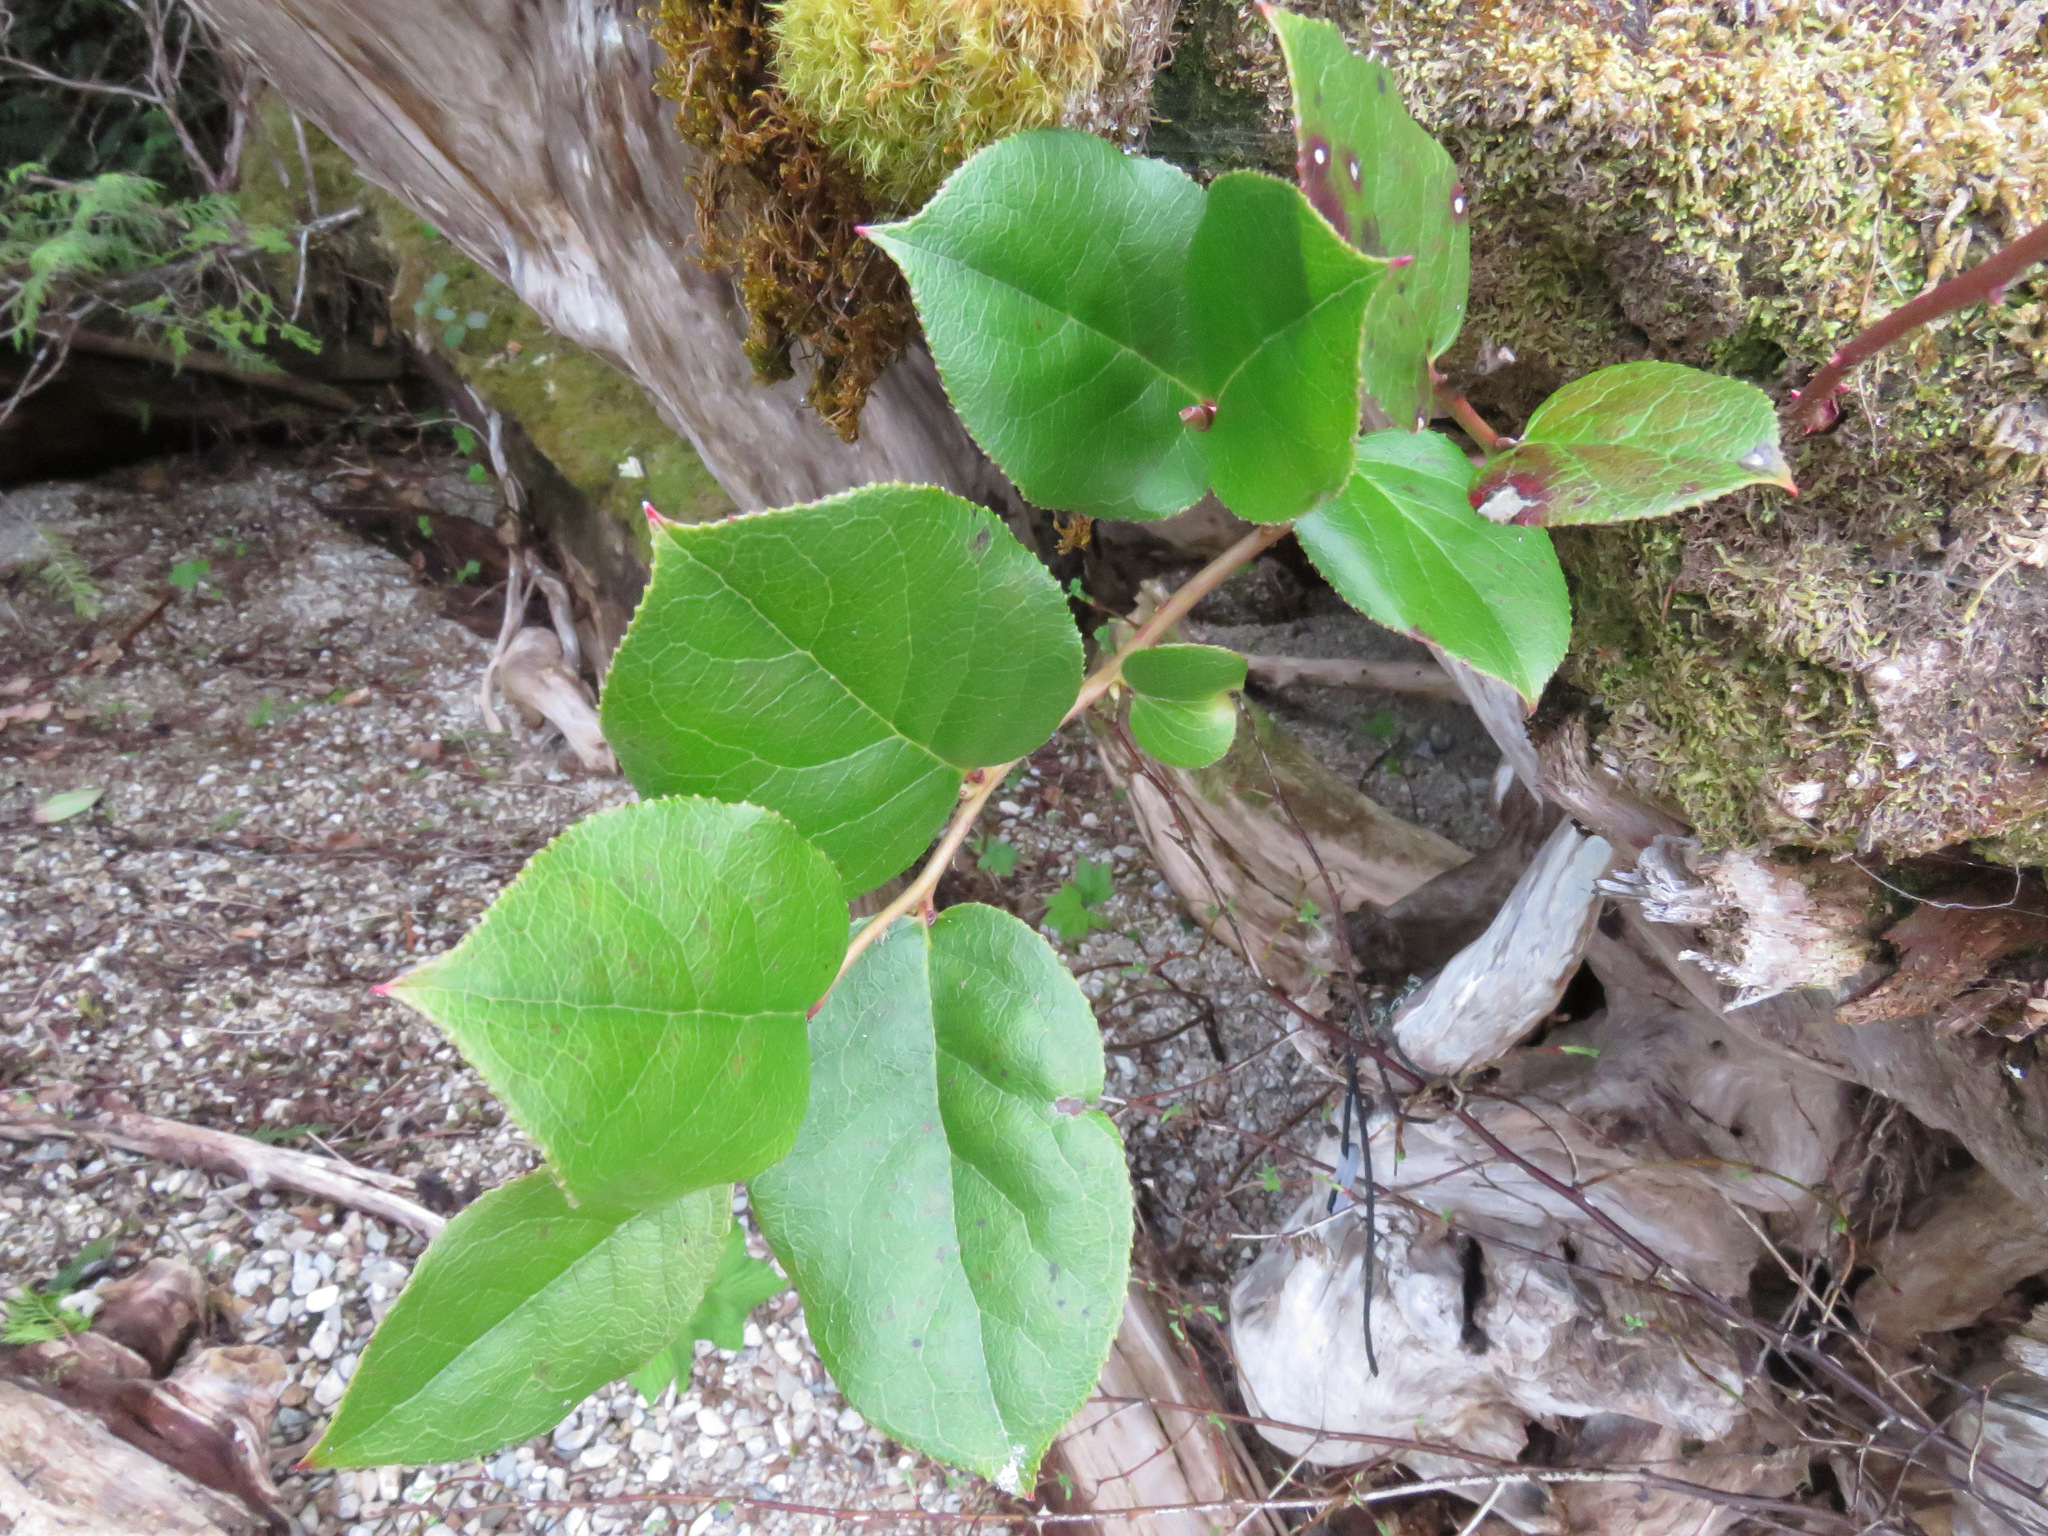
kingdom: Plantae
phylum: Tracheophyta
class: Magnoliopsida
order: Ericales
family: Ericaceae
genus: Gaultheria
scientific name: Gaultheria shallon
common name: Shallon
